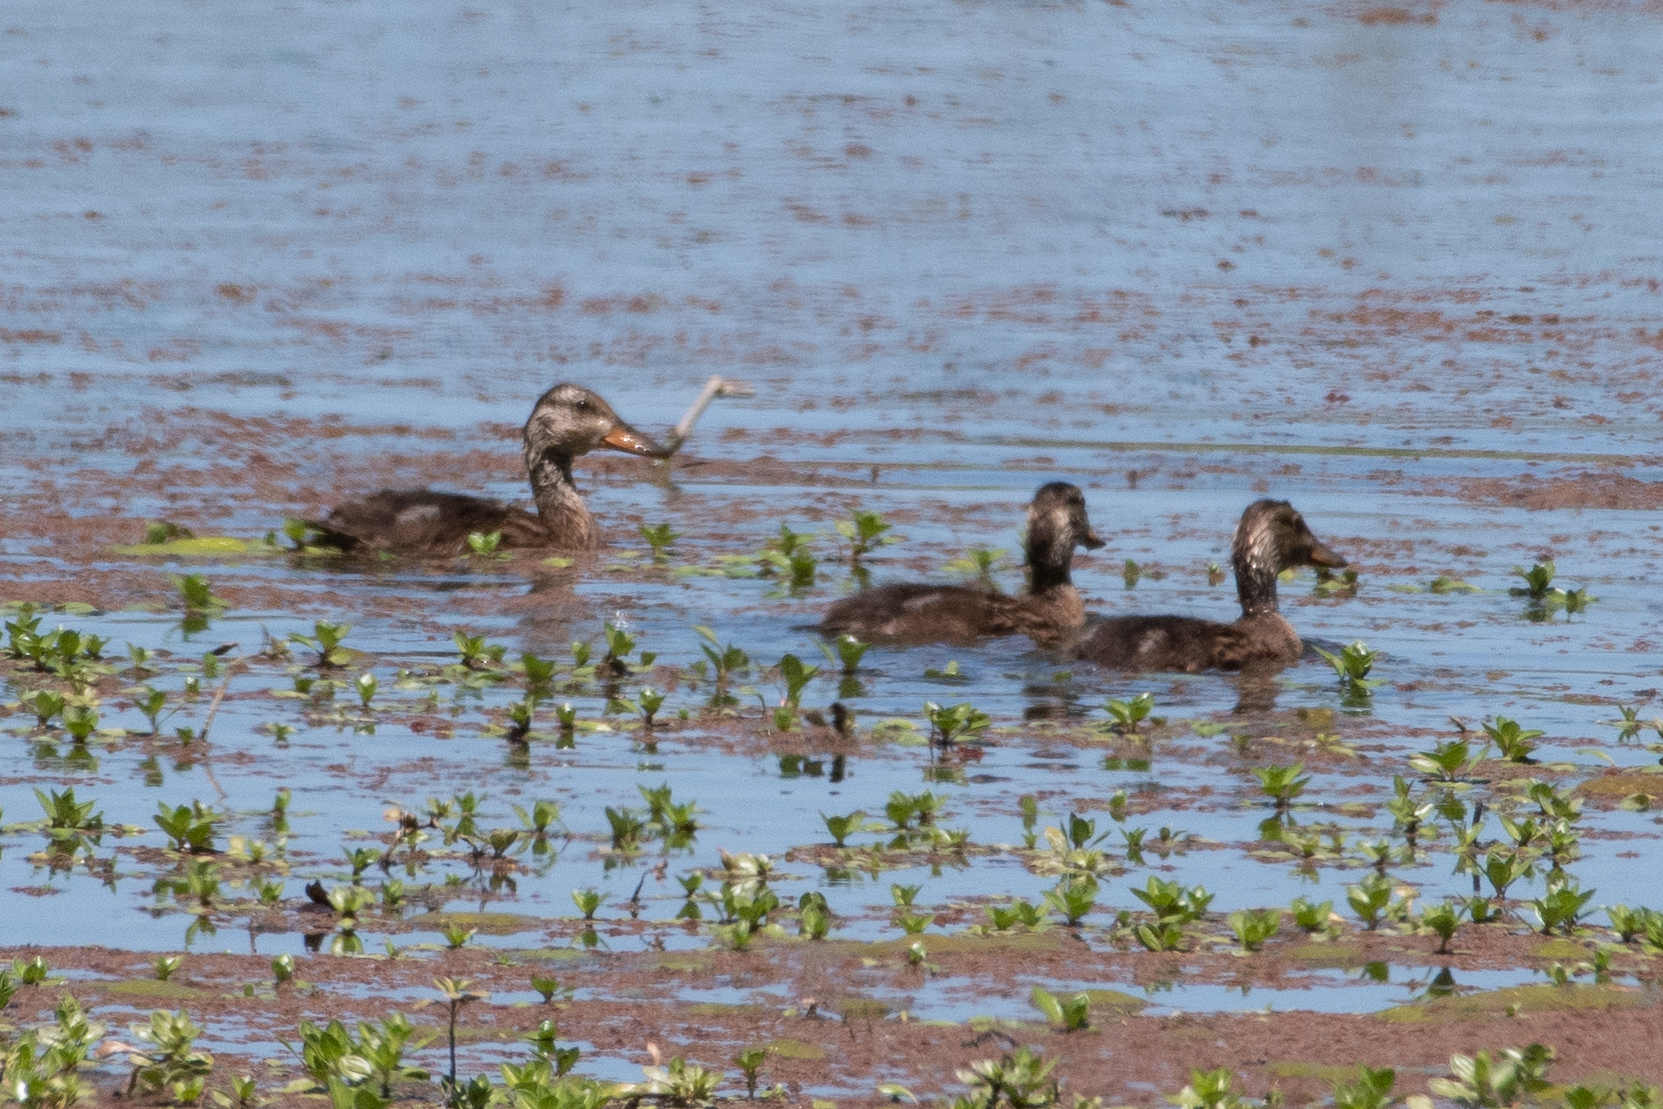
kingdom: Animalia
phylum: Chordata
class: Aves
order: Anseriformes
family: Anatidae
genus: Anas
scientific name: Anas platyrhynchos
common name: Mallard
